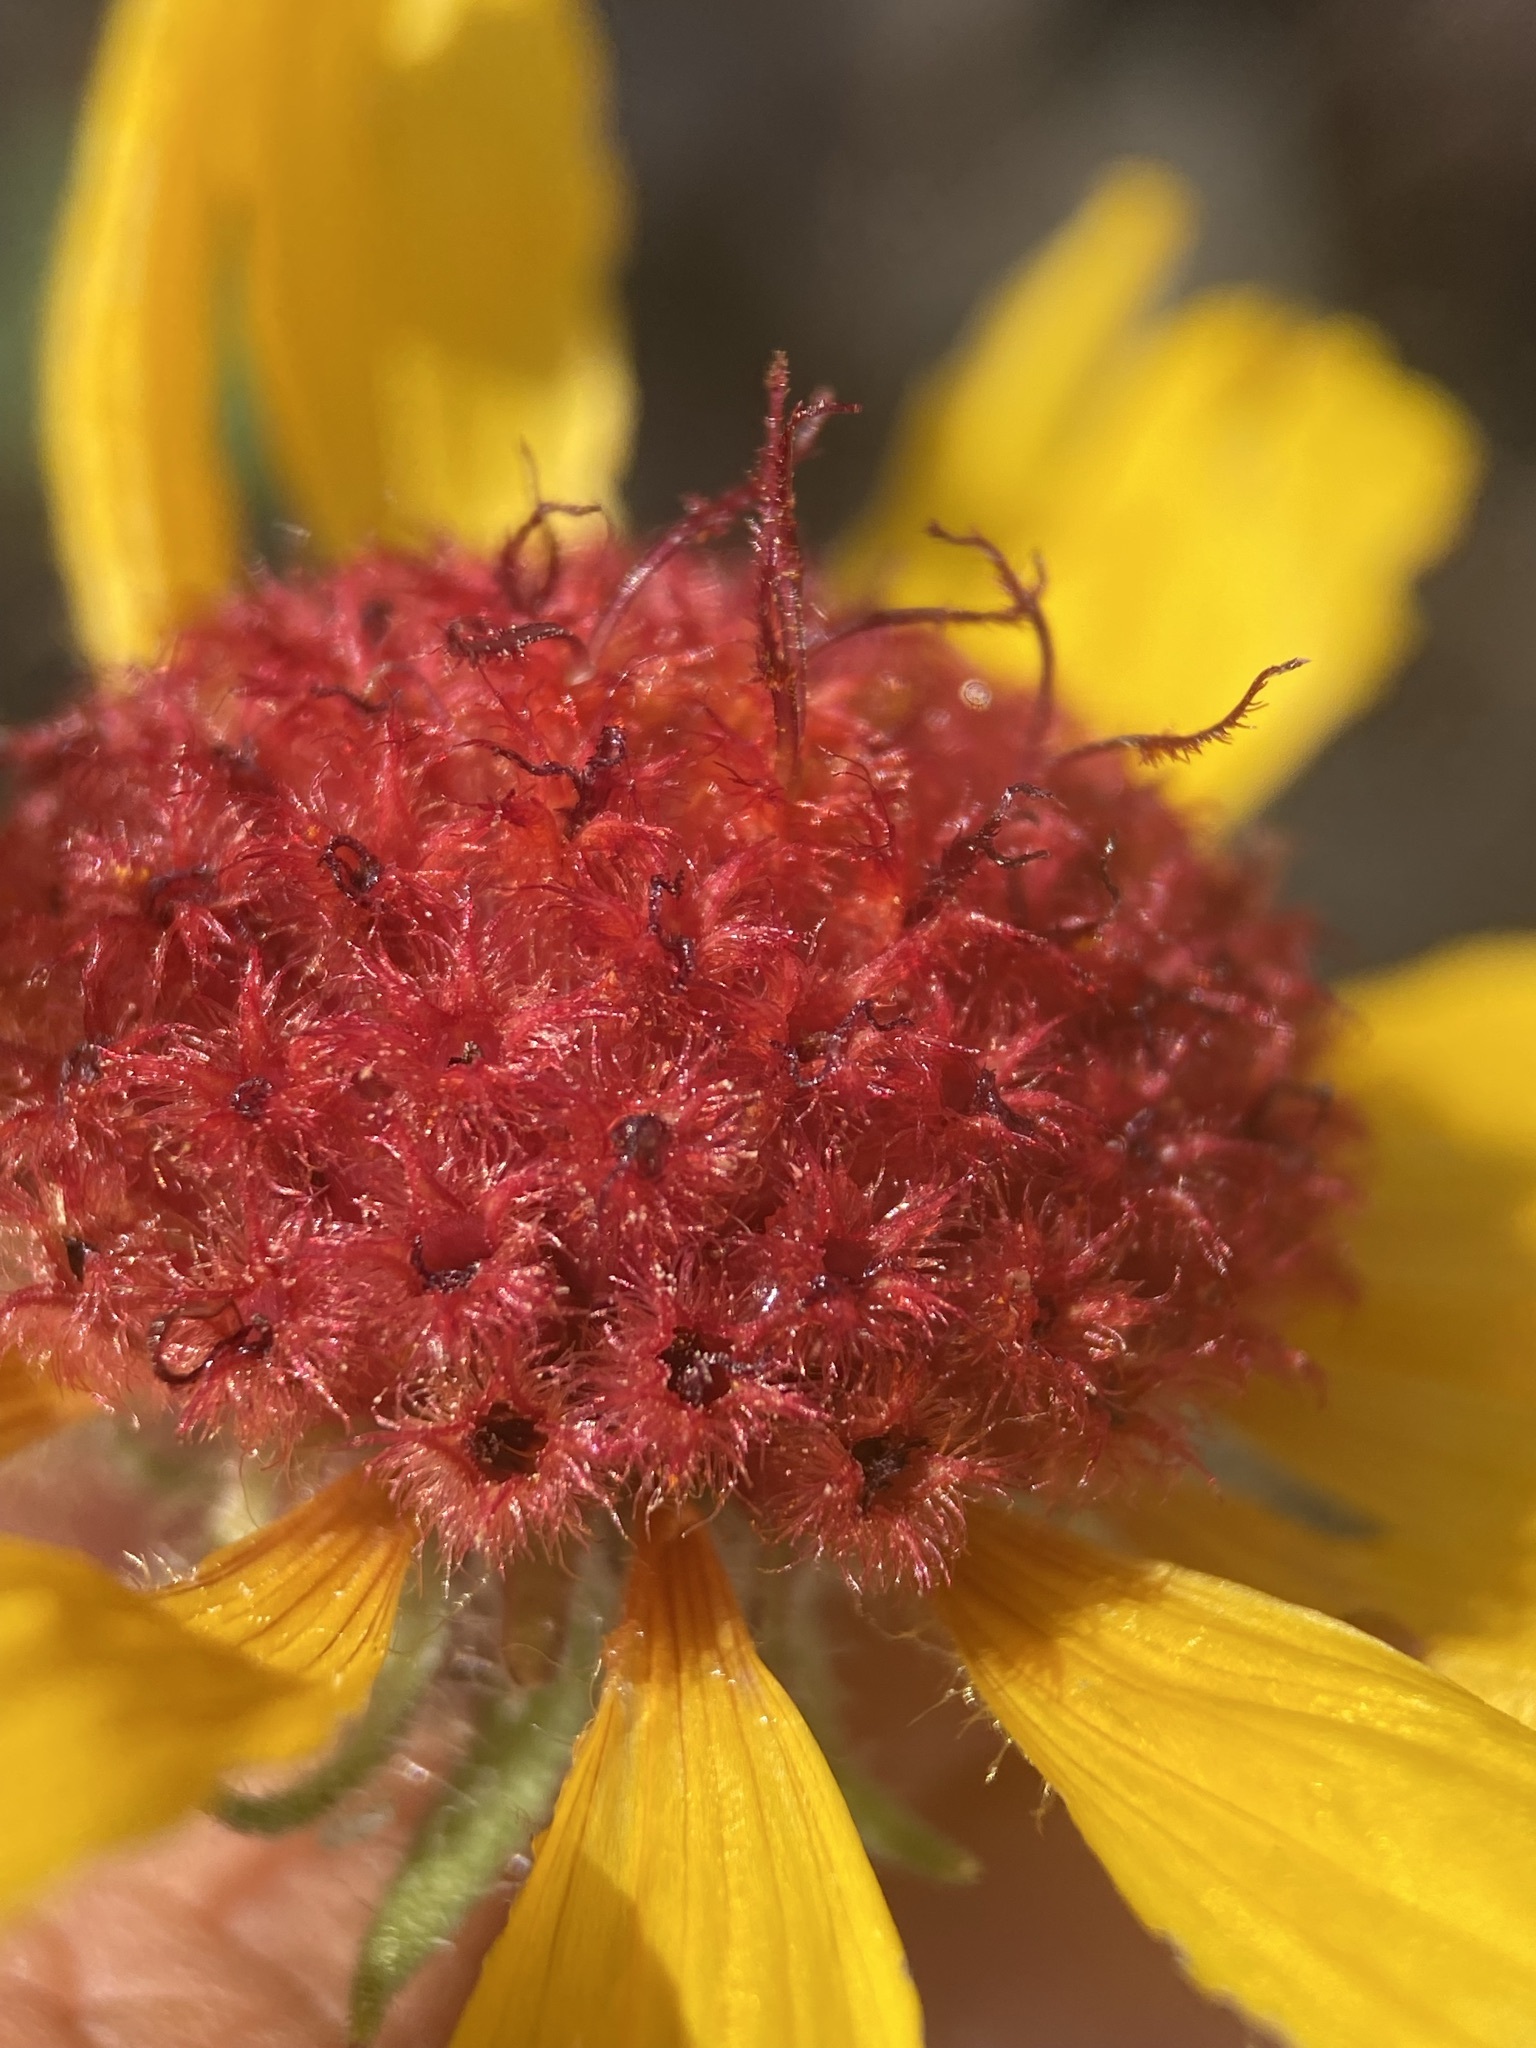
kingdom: Plantae
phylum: Tracheophyta
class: Magnoliopsida
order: Asterales
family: Asteraceae
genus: Gaillardia
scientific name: Gaillardia aristata
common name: Blanket-flower
